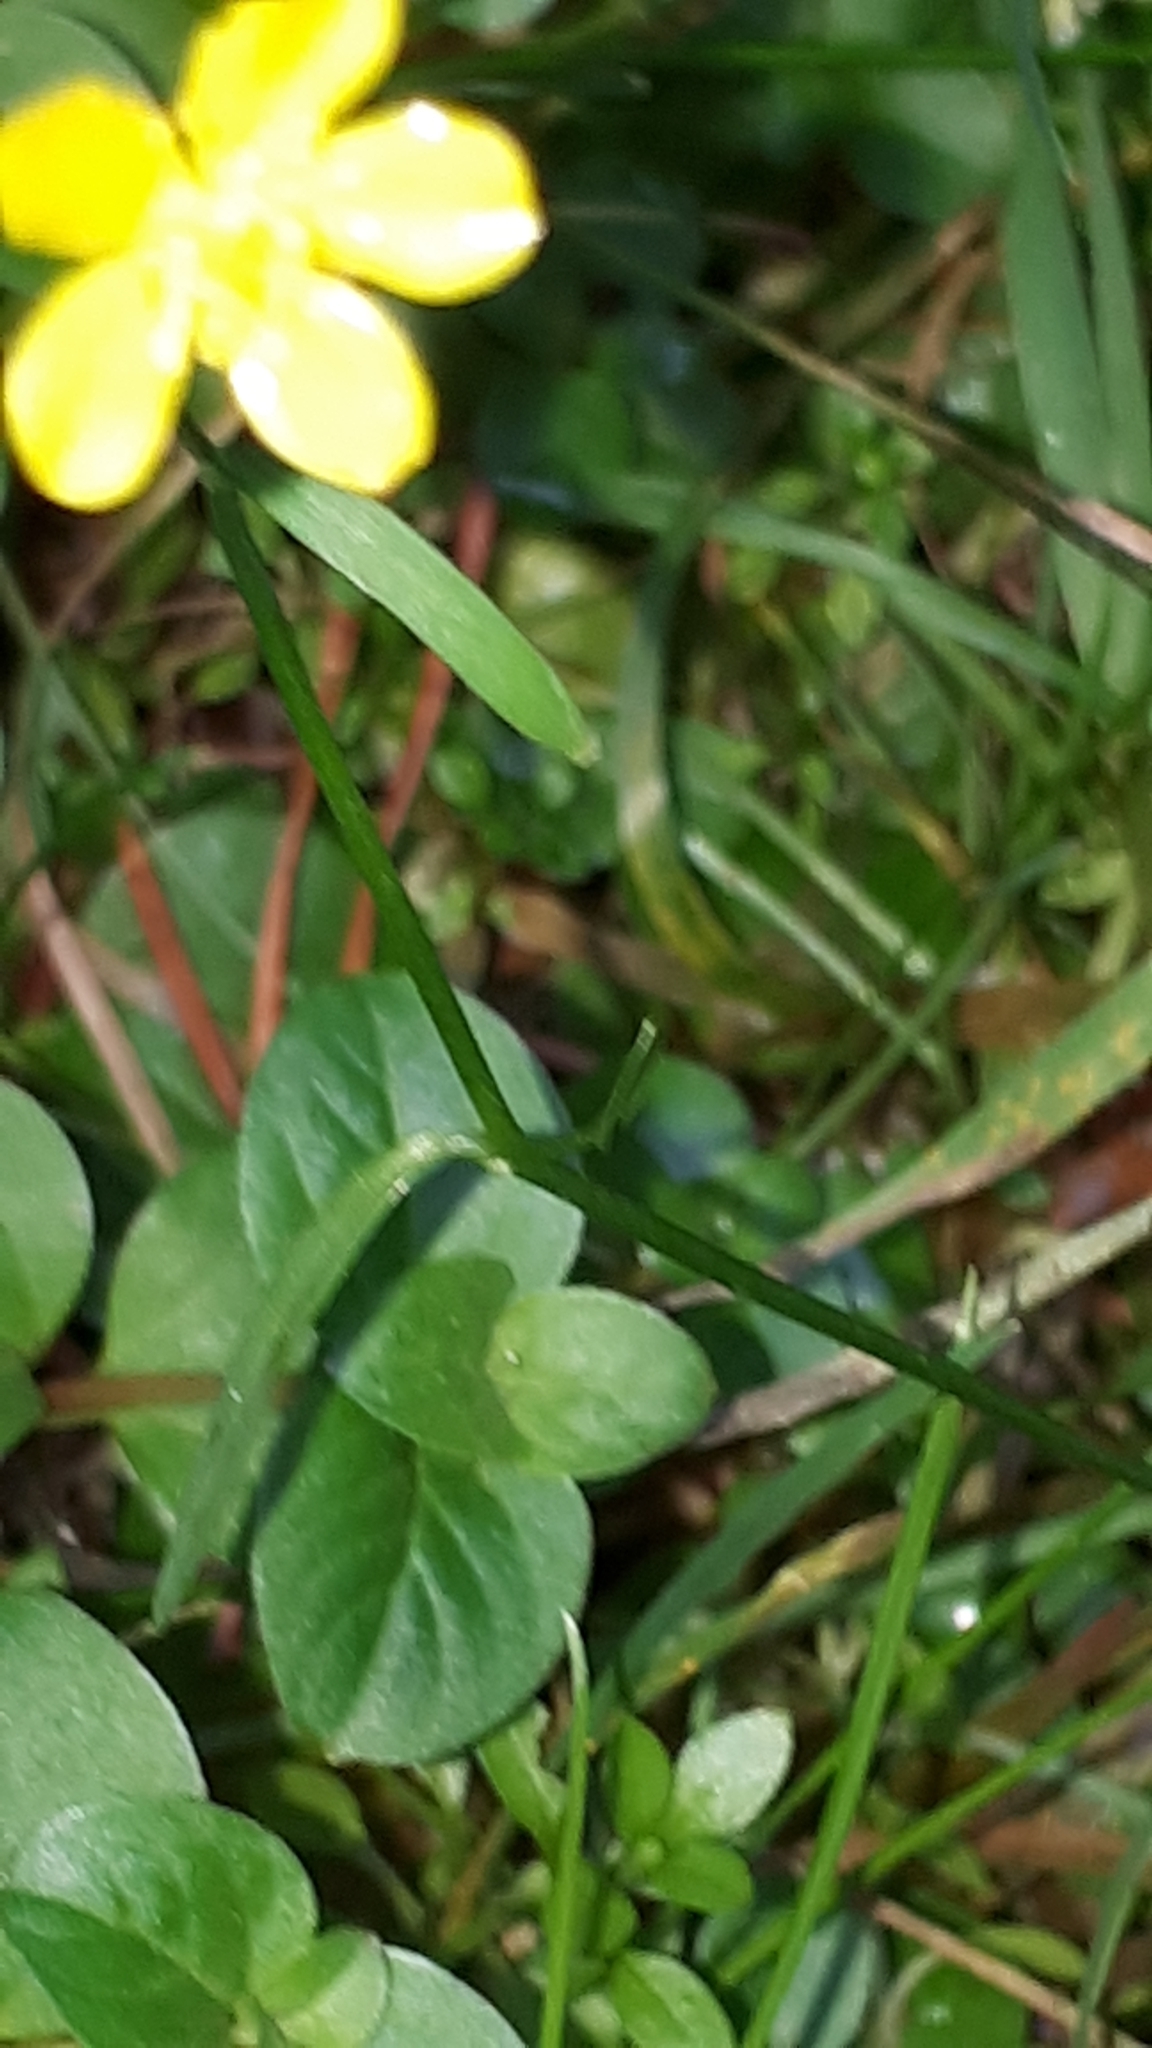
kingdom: Plantae
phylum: Tracheophyta
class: Magnoliopsida
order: Ranunculales
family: Ranunculaceae
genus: Ranunculus
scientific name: Ranunculus flammula
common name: Lesser spearwort
